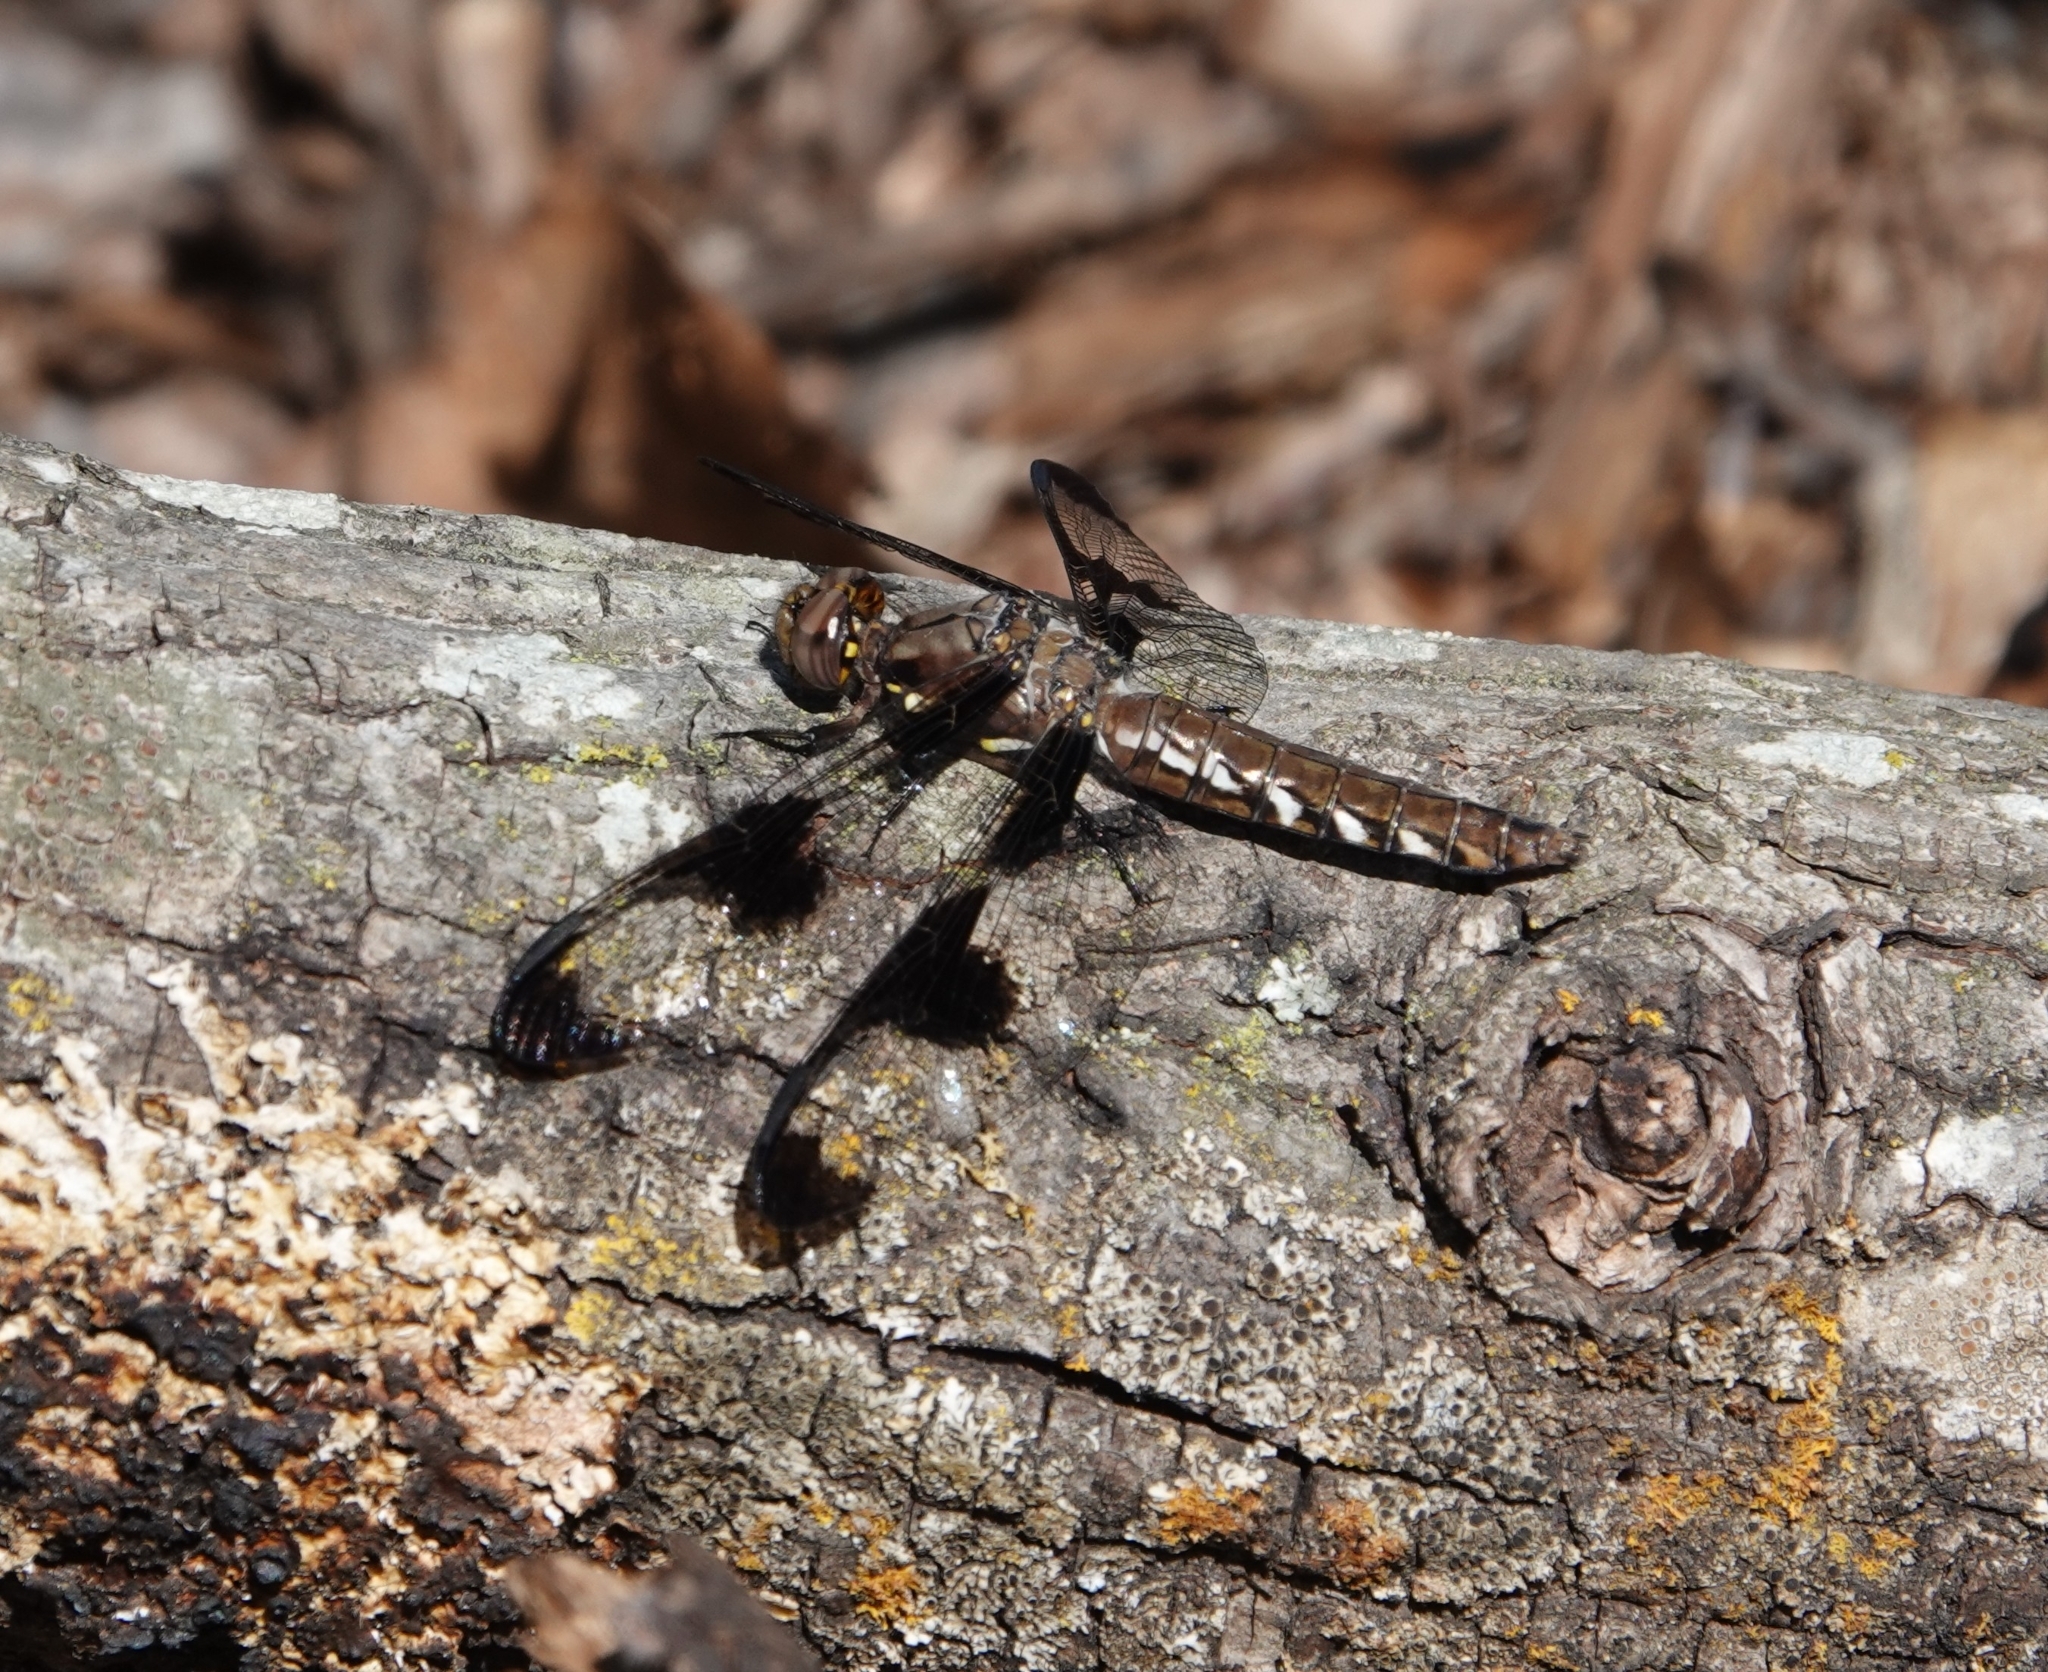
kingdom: Animalia
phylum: Arthropoda
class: Insecta
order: Odonata
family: Libellulidae
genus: Plathemis
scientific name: Plathemis lydia
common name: Common whitetail
